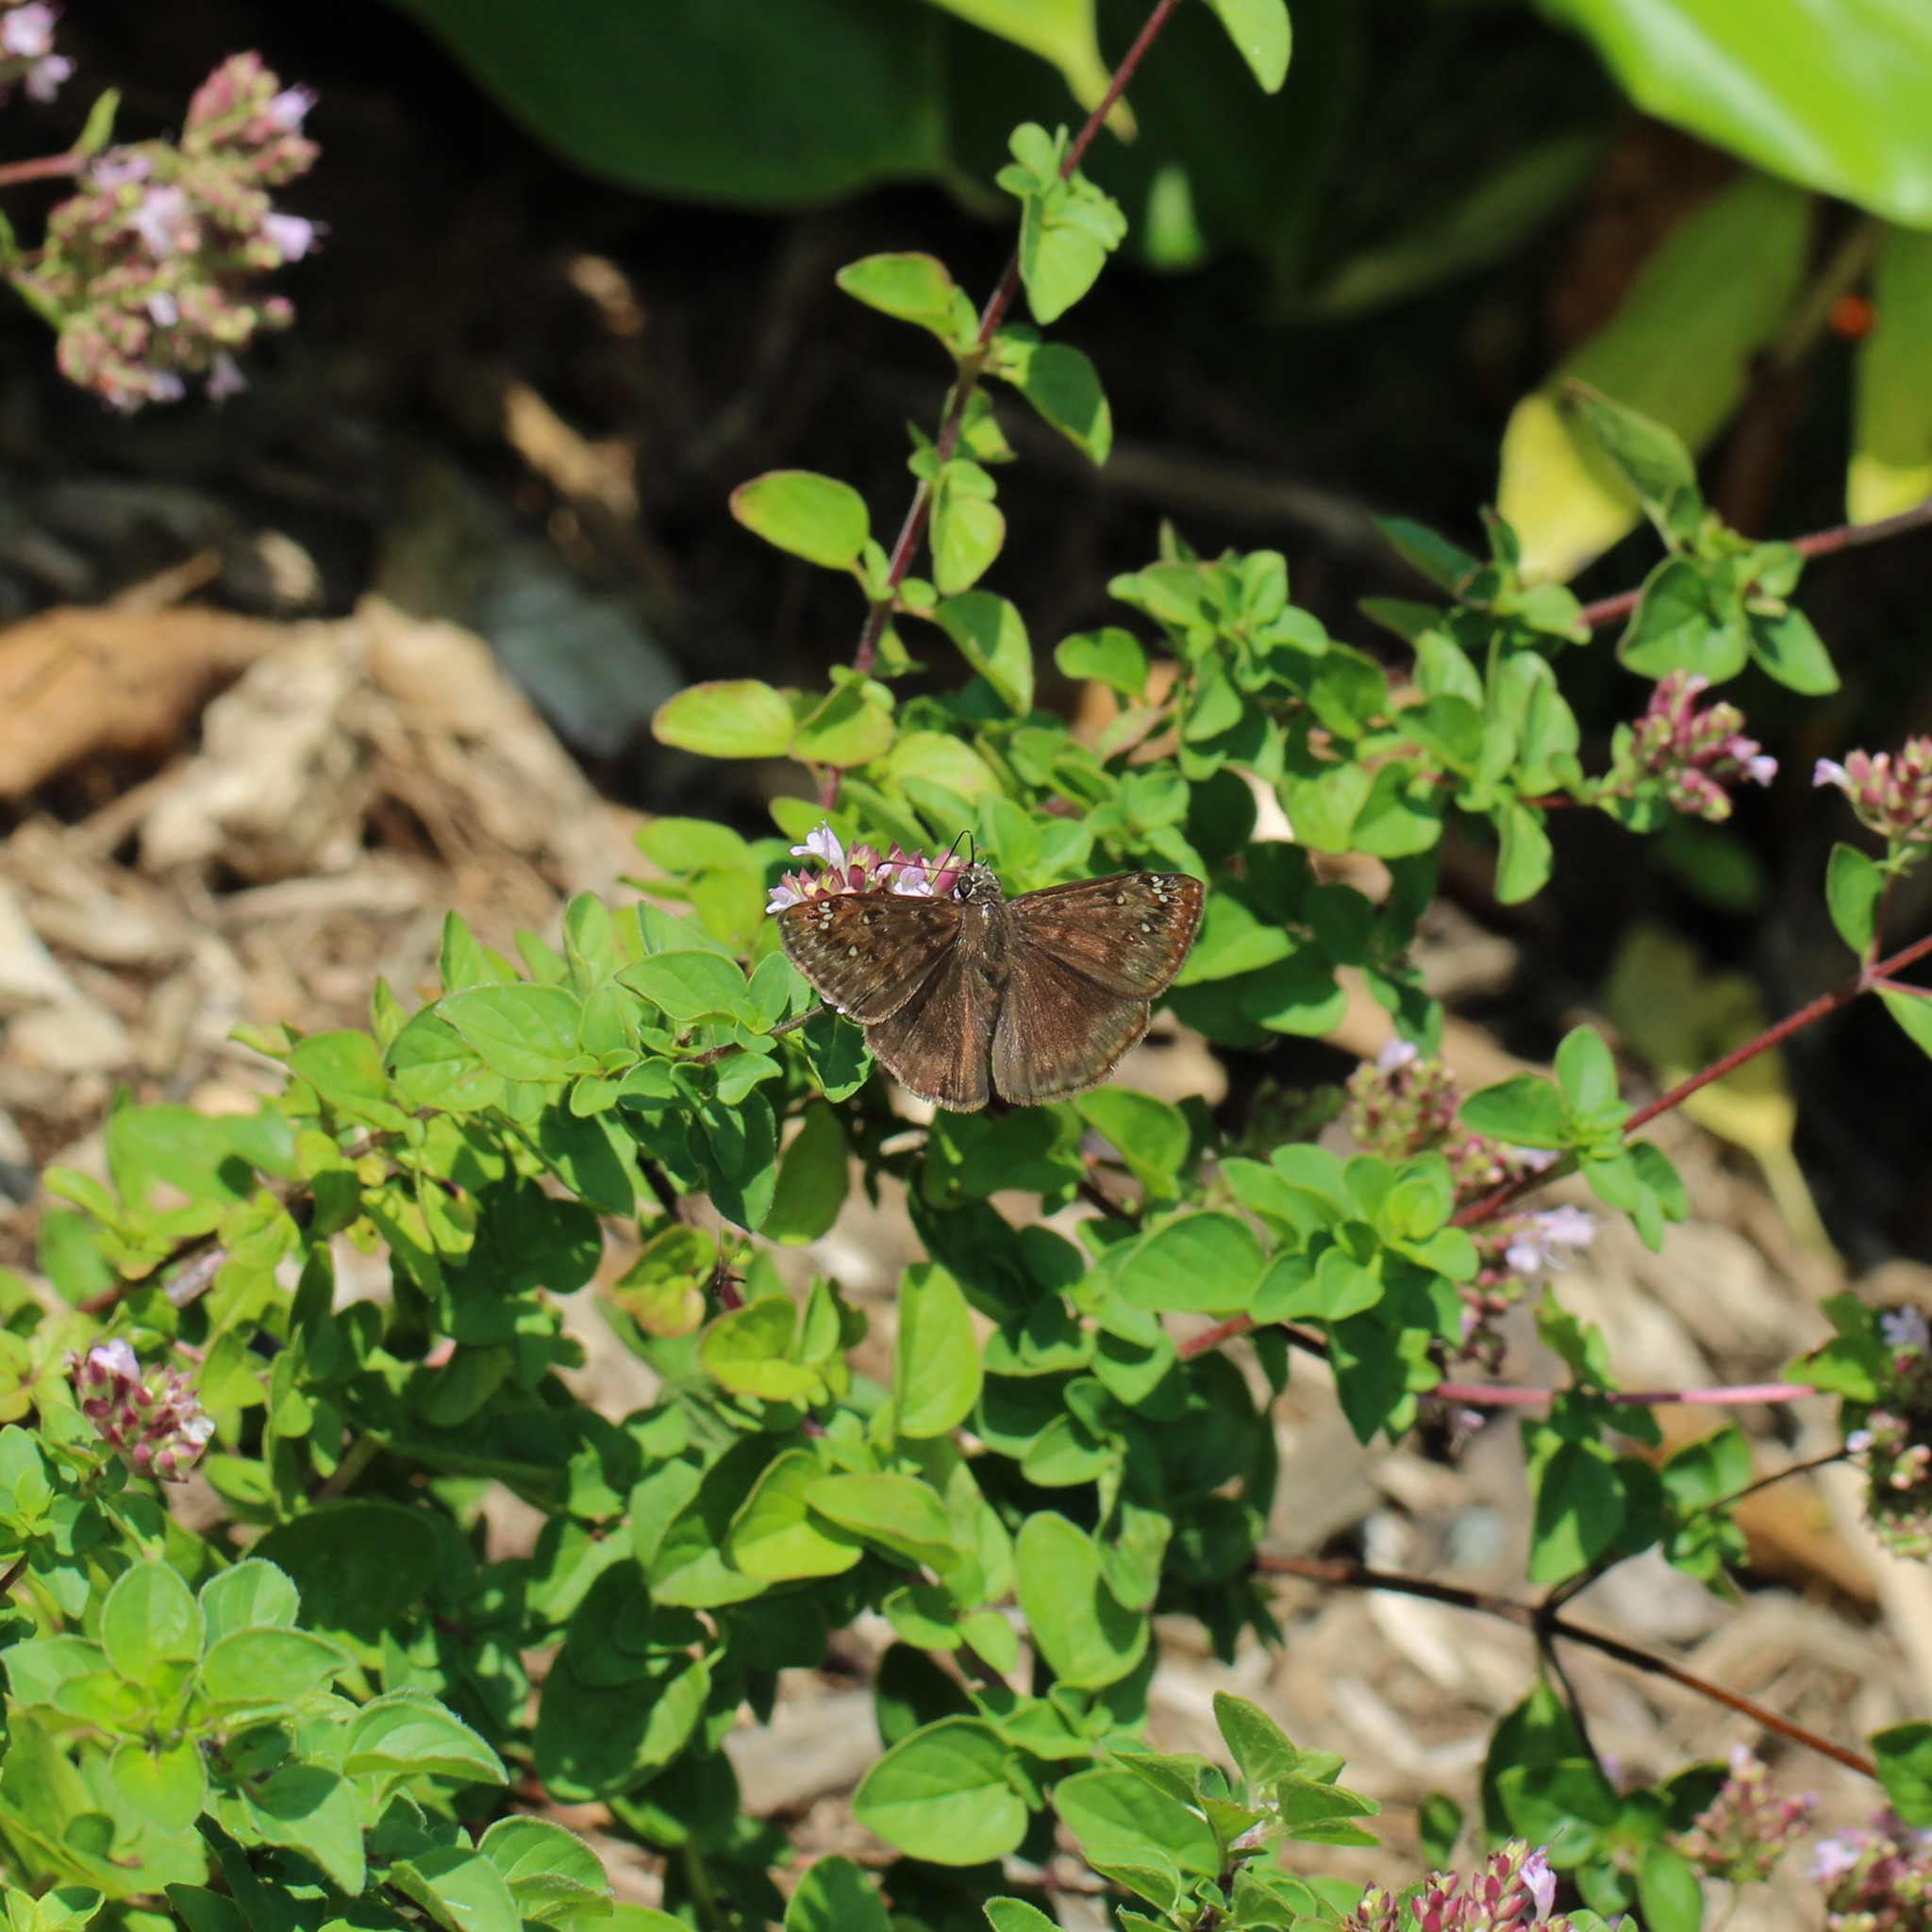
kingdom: Animalia
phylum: Arthropoda
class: Insecta
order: Lepidoptera
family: Hesperiidae
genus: Erynnis
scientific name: Erynnis horatius
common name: Horace's duskywing
